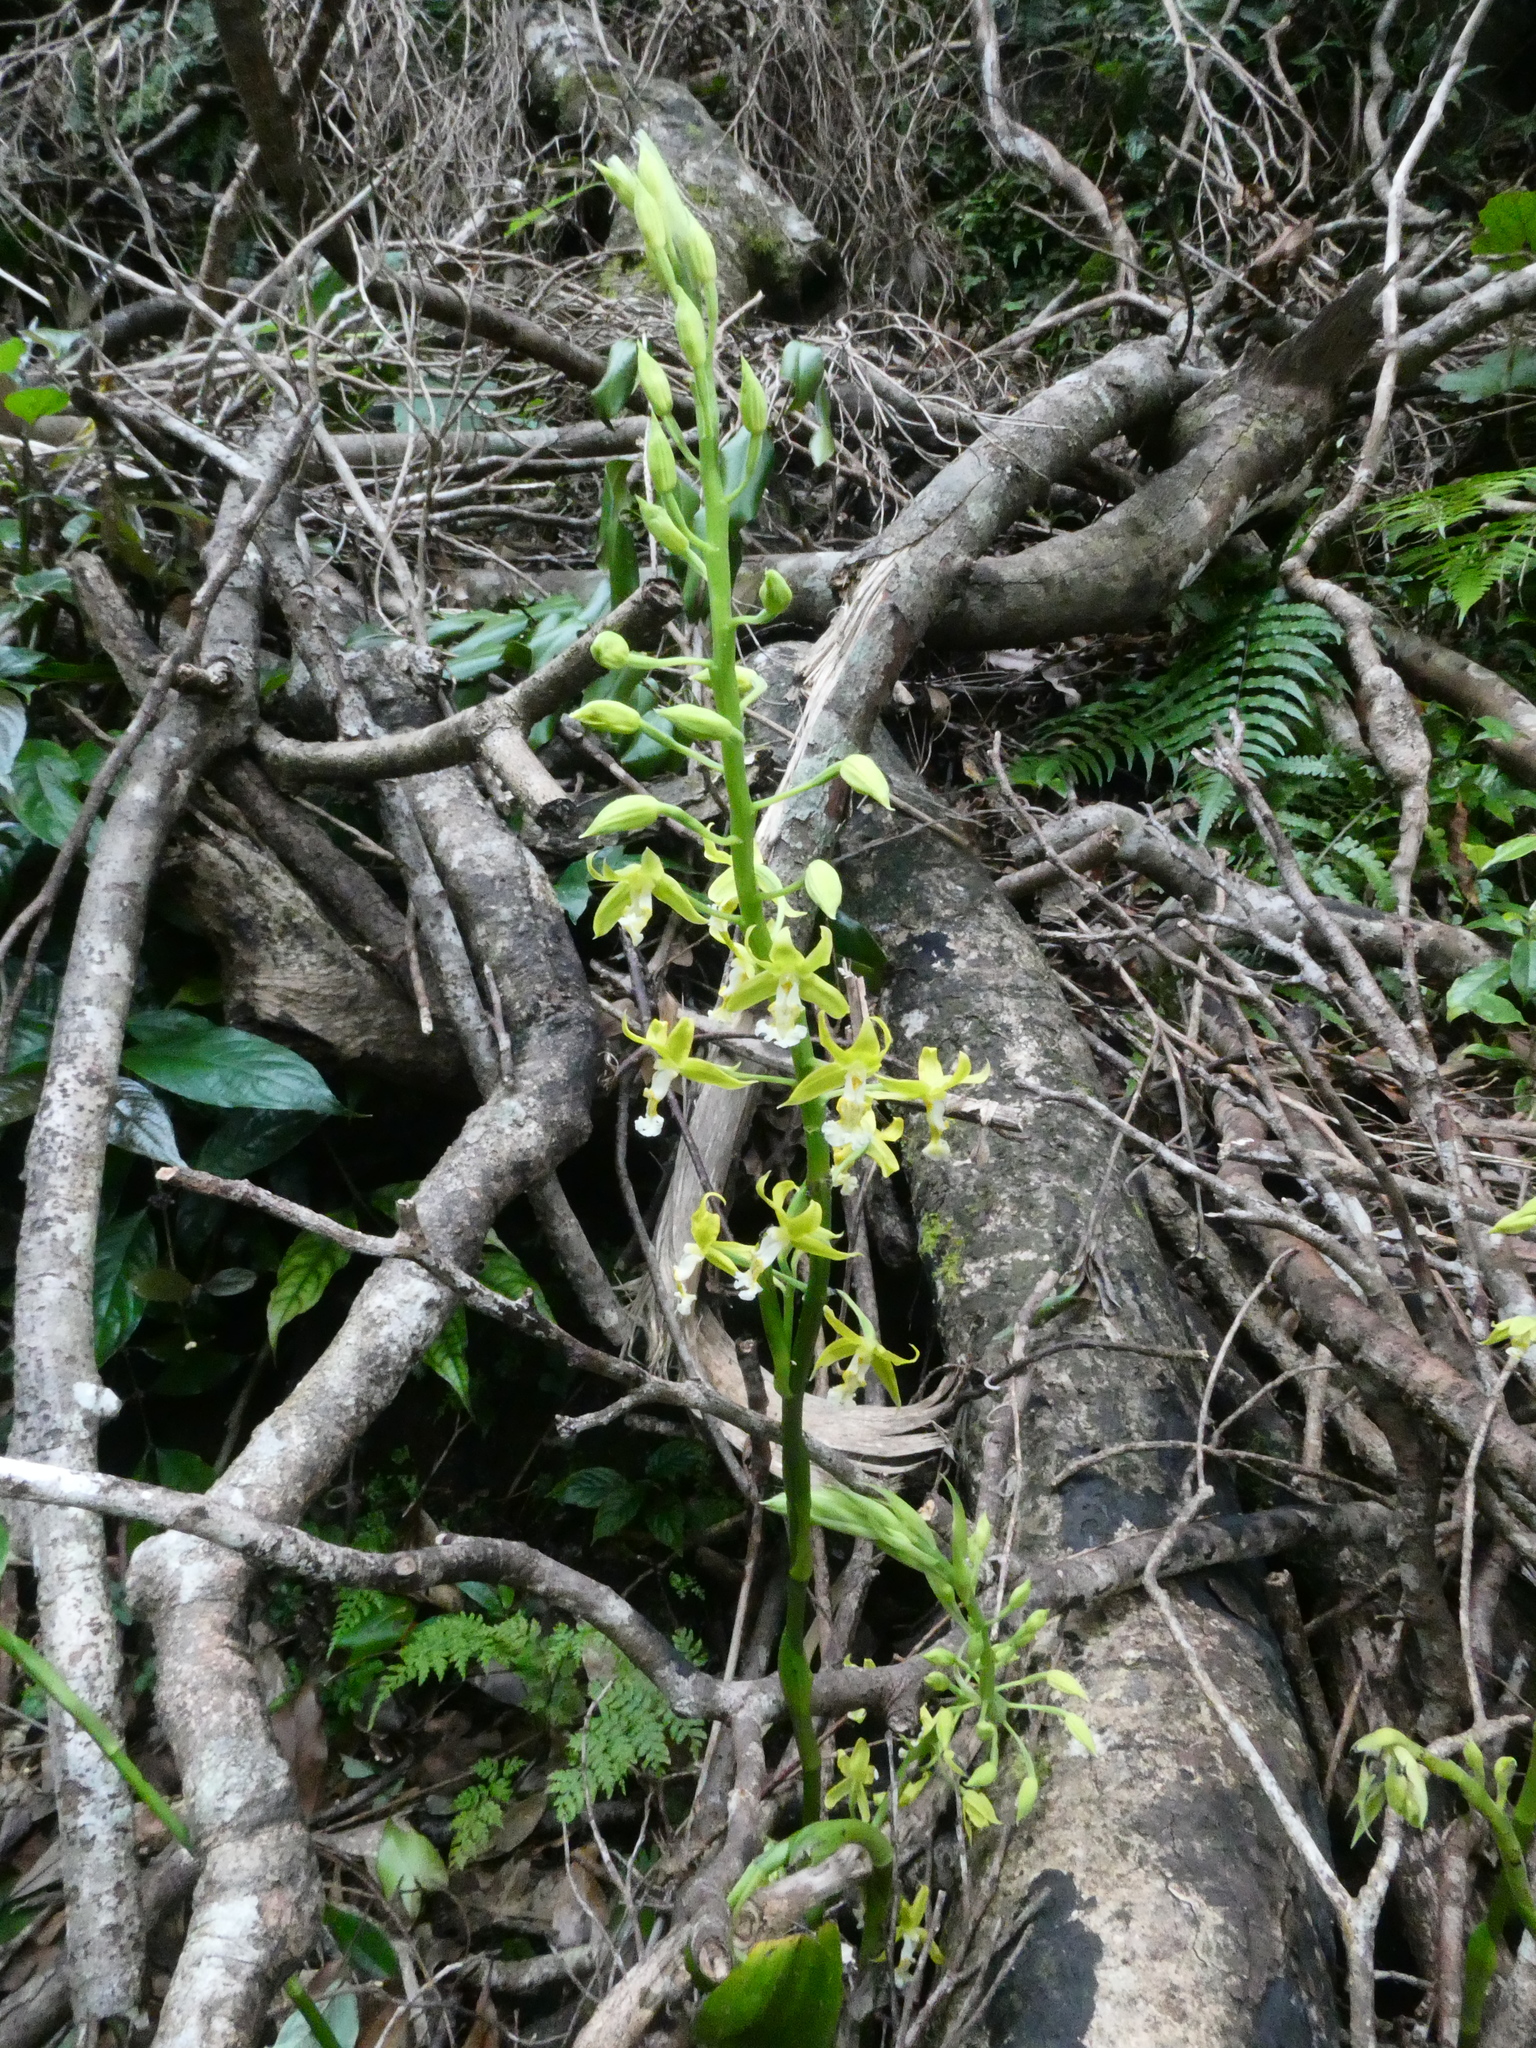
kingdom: Plantae
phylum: Tracheophyta
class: Liliopsida
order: Asparagales
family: Orchidaceae
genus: Calanthe
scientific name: Calanthe obcordata
